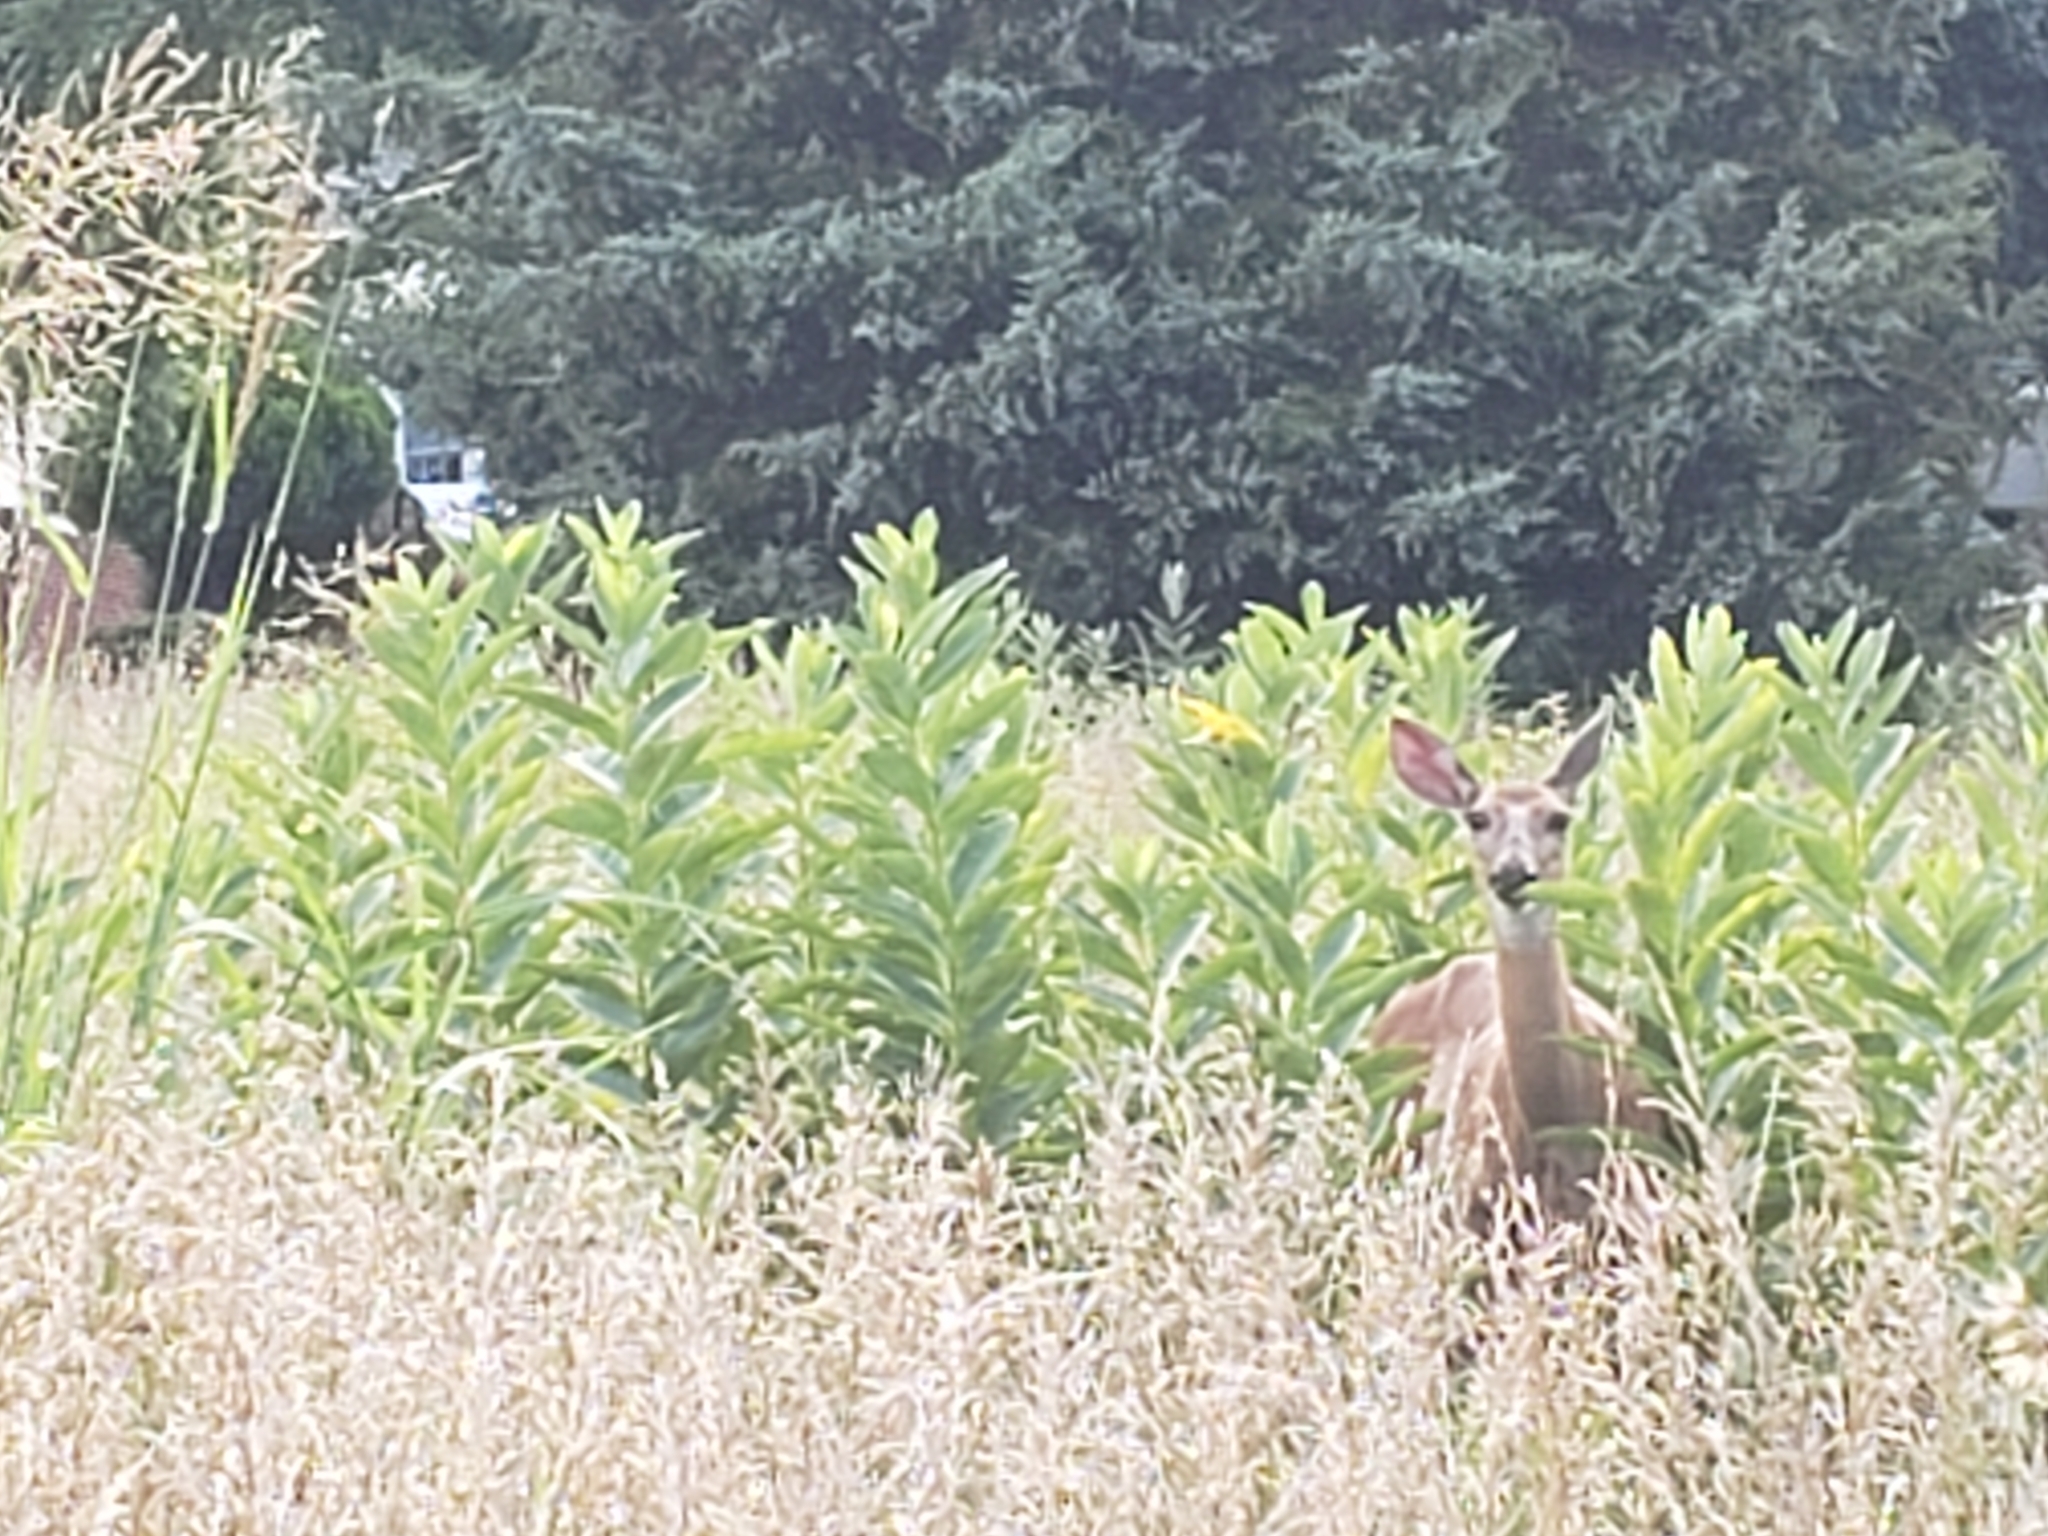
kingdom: Animalia
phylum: Chordata
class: Mammalia
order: Artiodactyla
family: Cervidae
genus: Odocoileus
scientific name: Odocoileus virginianus
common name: White-tailed deer
